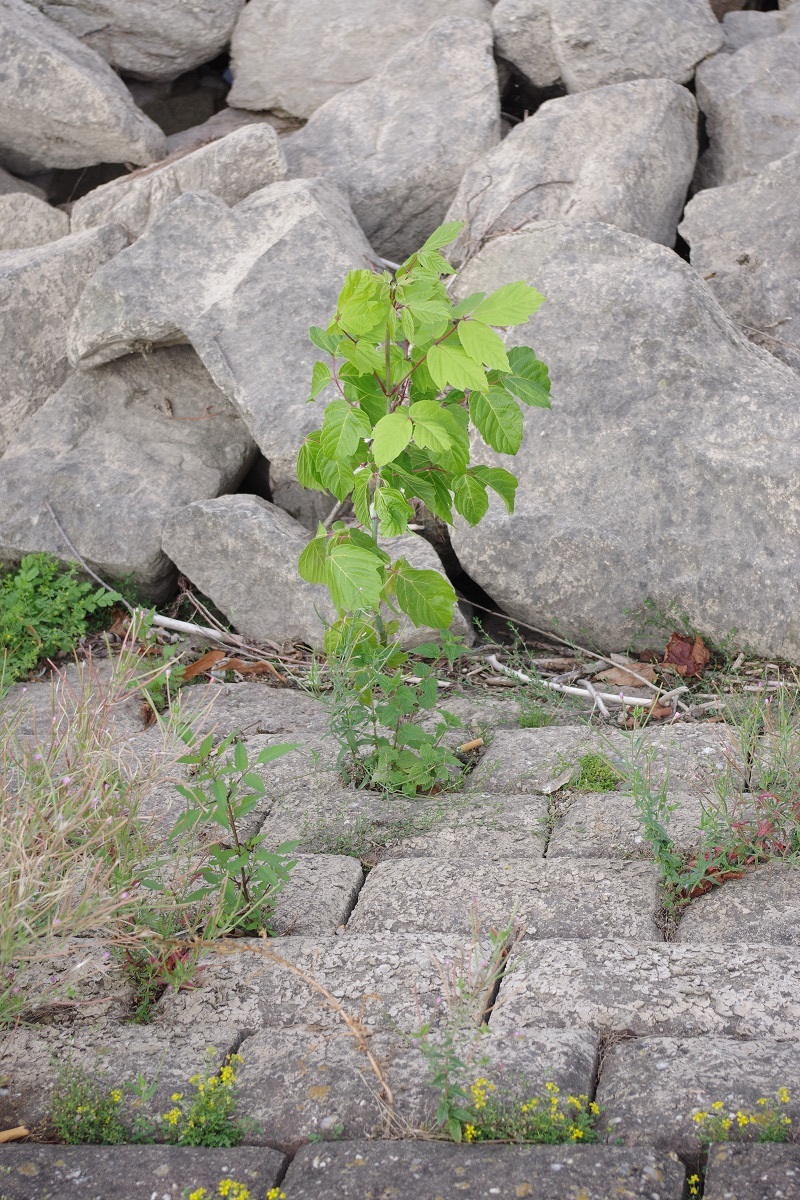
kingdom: Plantae
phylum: Tracheophyta
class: Magnoliopsida
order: Sapindales
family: Sapindaceae
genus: Acer
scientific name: Acer negundo
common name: Ashleaf maple
